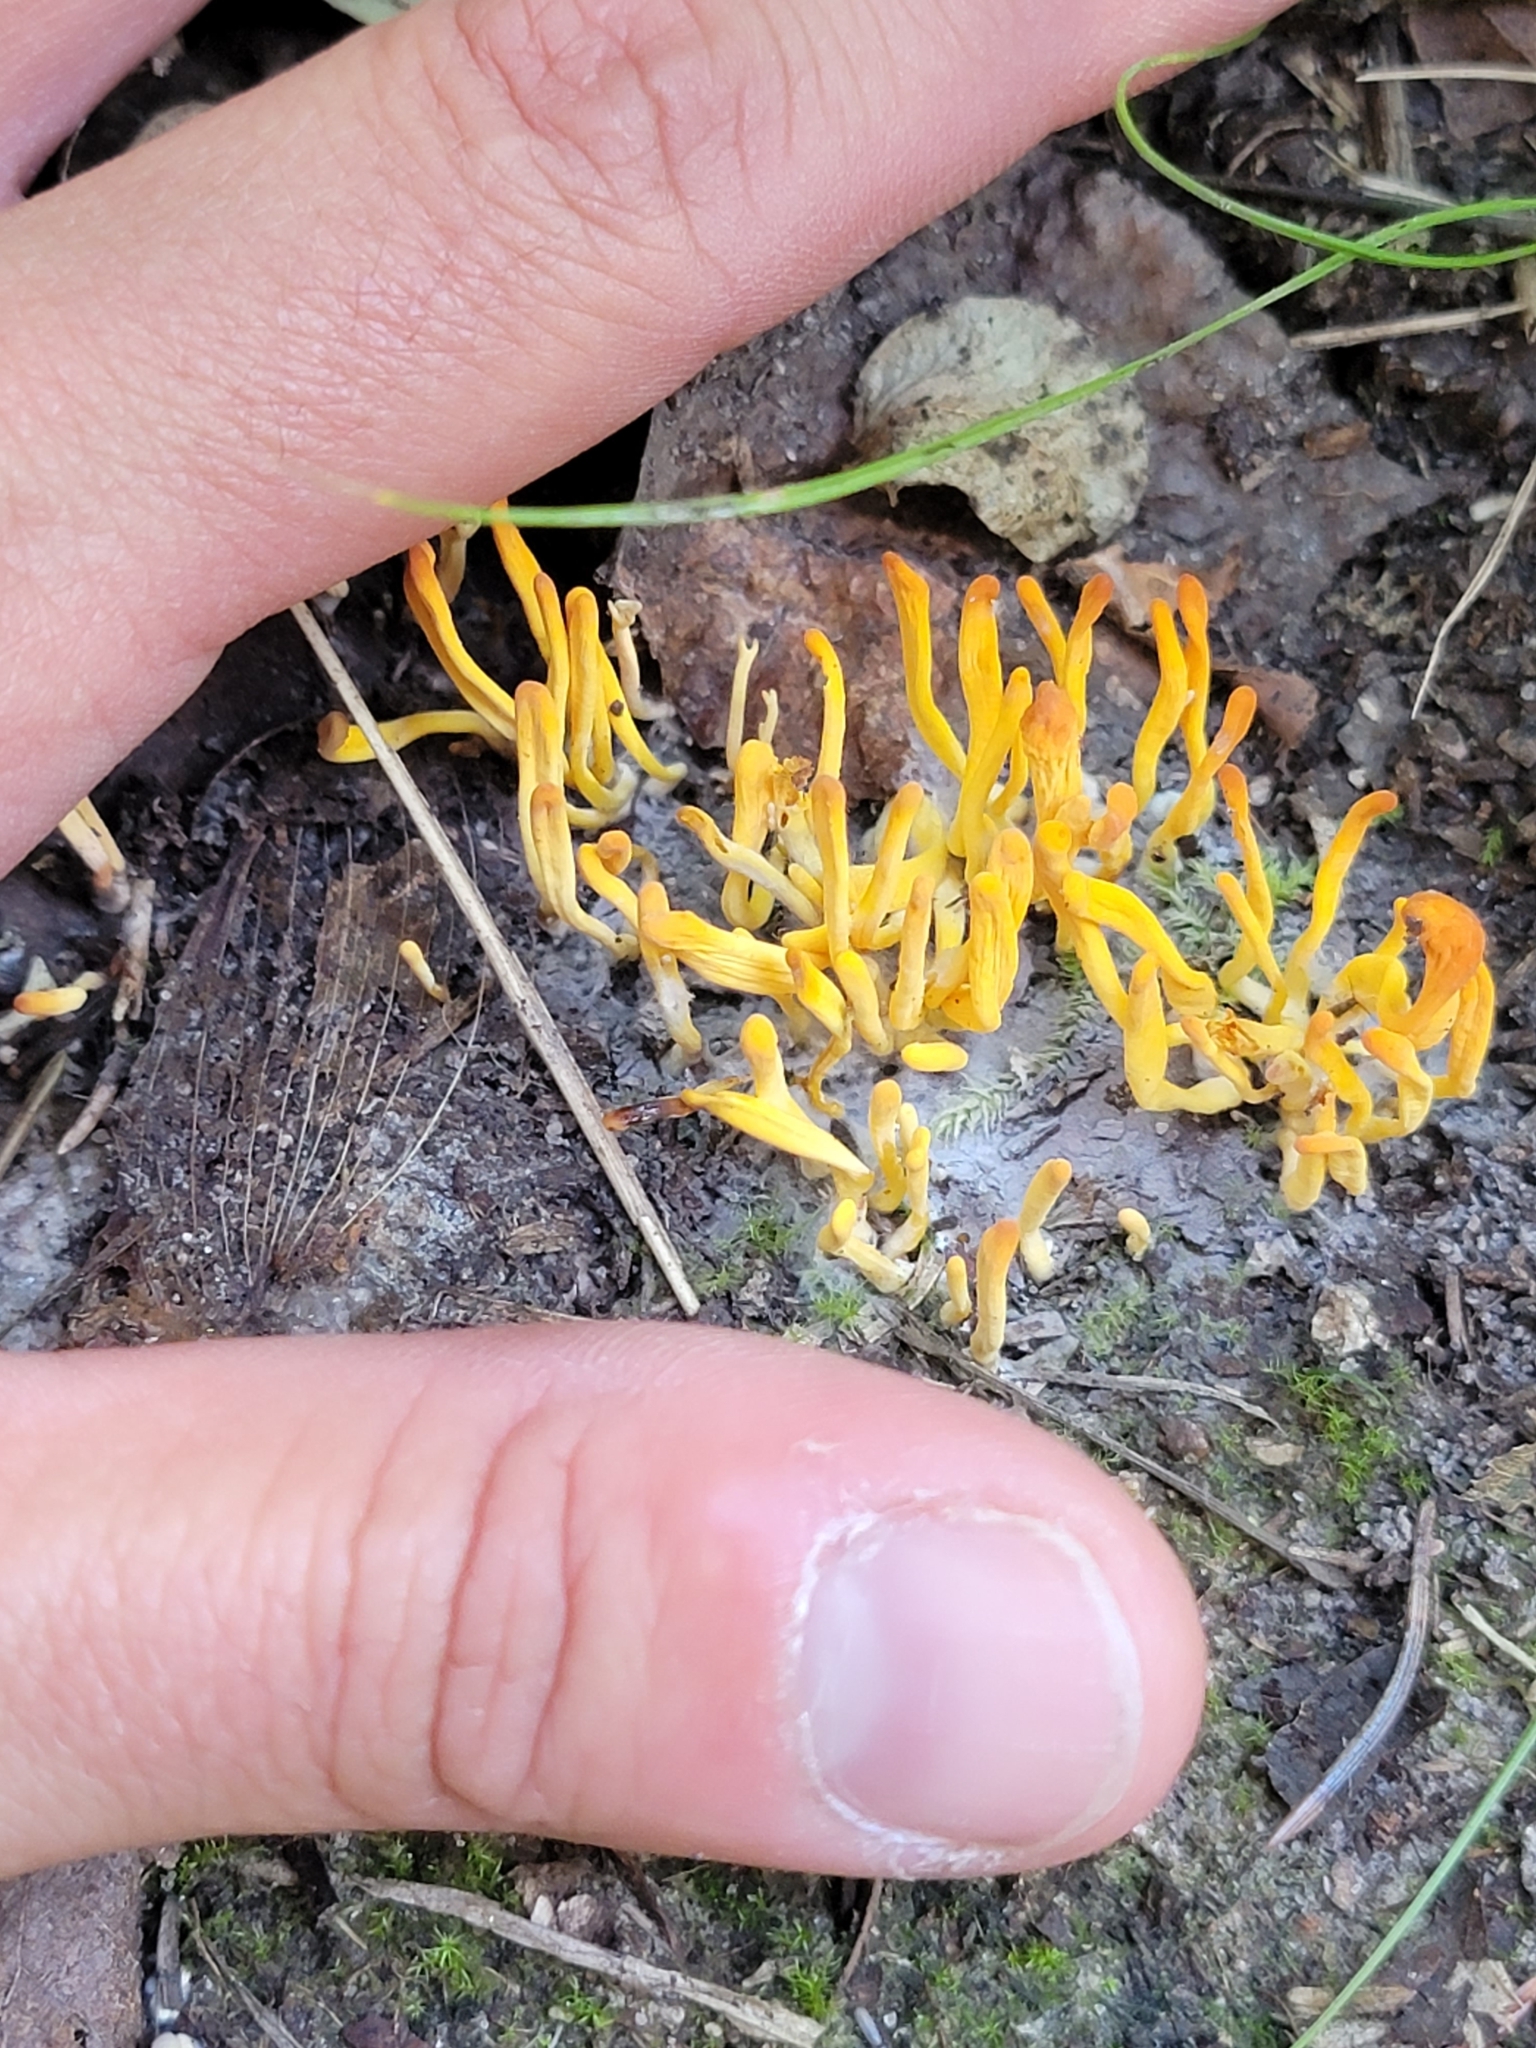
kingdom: Fungi
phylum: Basidiomycota
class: Dacrymycetes
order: Dacrymycetales
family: Dacrymycetaceae
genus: Calocera
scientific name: Calocera cornea
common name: Small stagshorn
